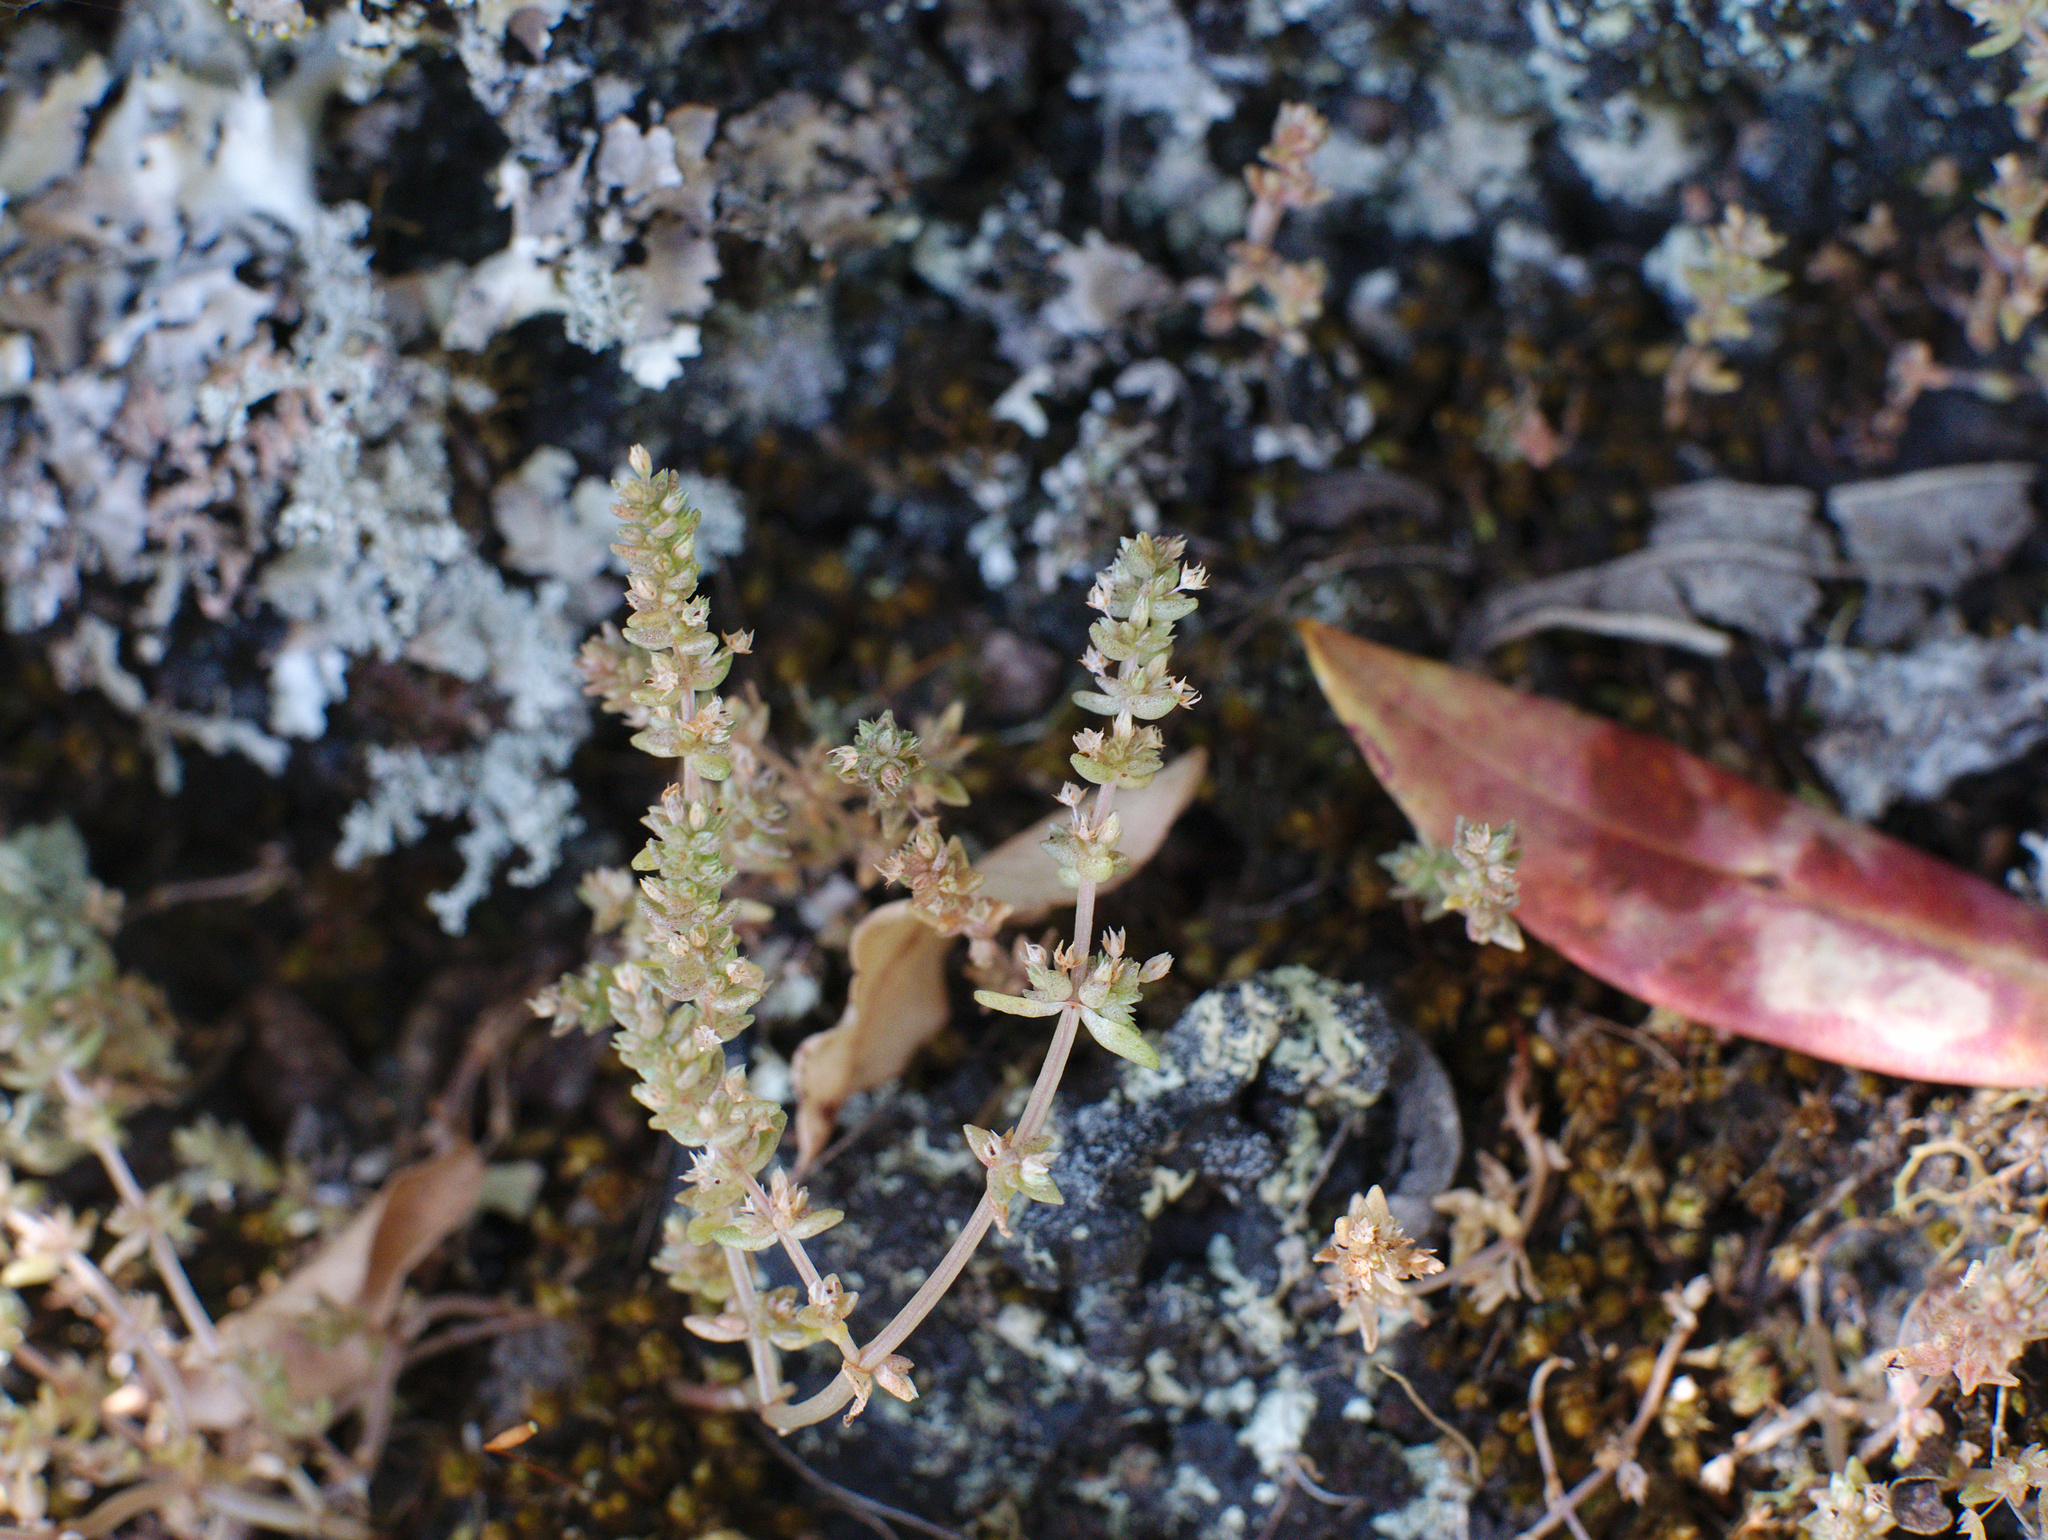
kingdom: Plantae
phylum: Tracheophyta
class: Magnoliopsida
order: Saxifragales
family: Crassulaceae
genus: Crassula
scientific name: Crassula colligata
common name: Pygmyweed
